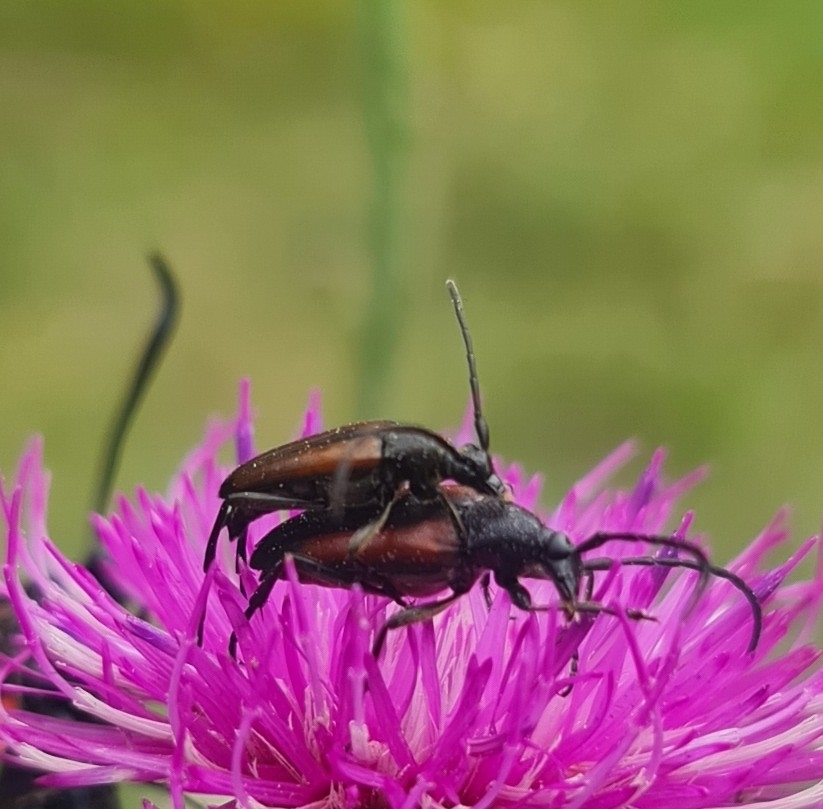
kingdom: Animalia
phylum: Arthropoda
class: Insecta
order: Coleoptera
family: Cerambycidae
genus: Stenurella
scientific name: Stenurella melanura
